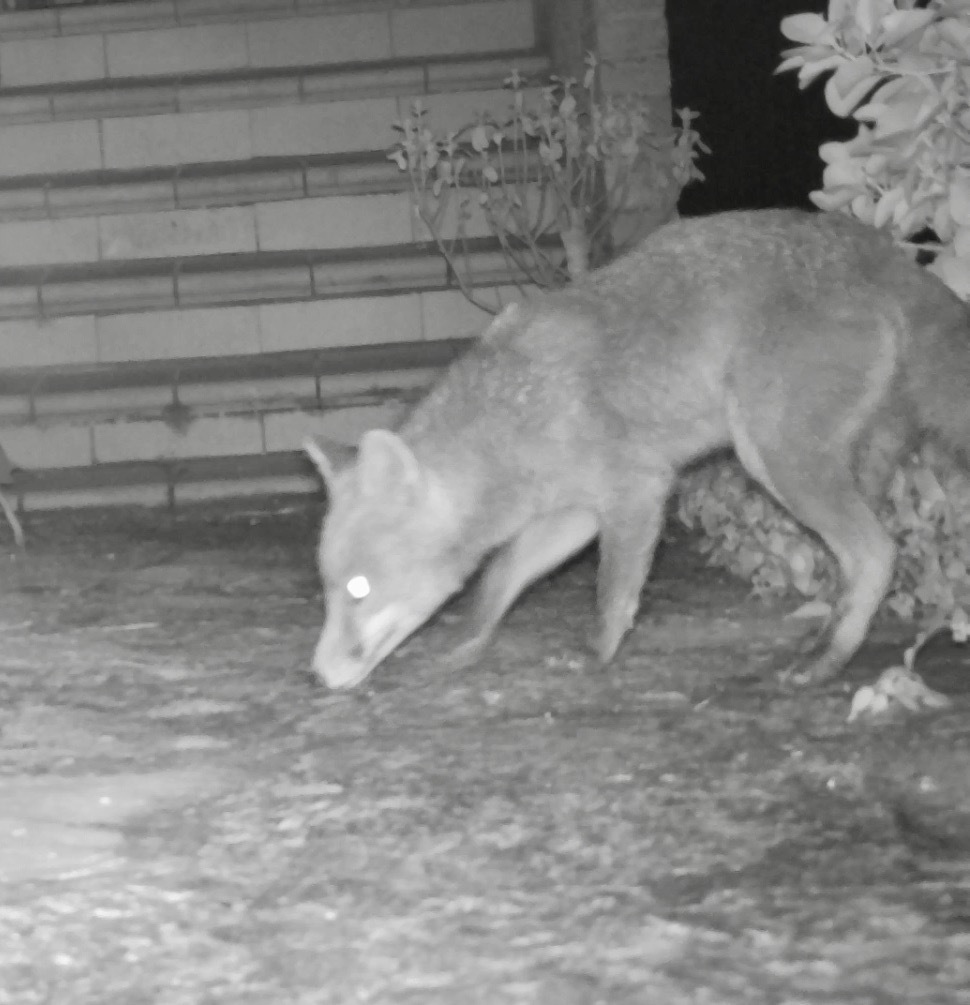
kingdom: Animalia
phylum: Chordata
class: Mammalia
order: Carnivora
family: Canidae
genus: Vulpes
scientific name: Vulpes vulpes
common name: Red fox
